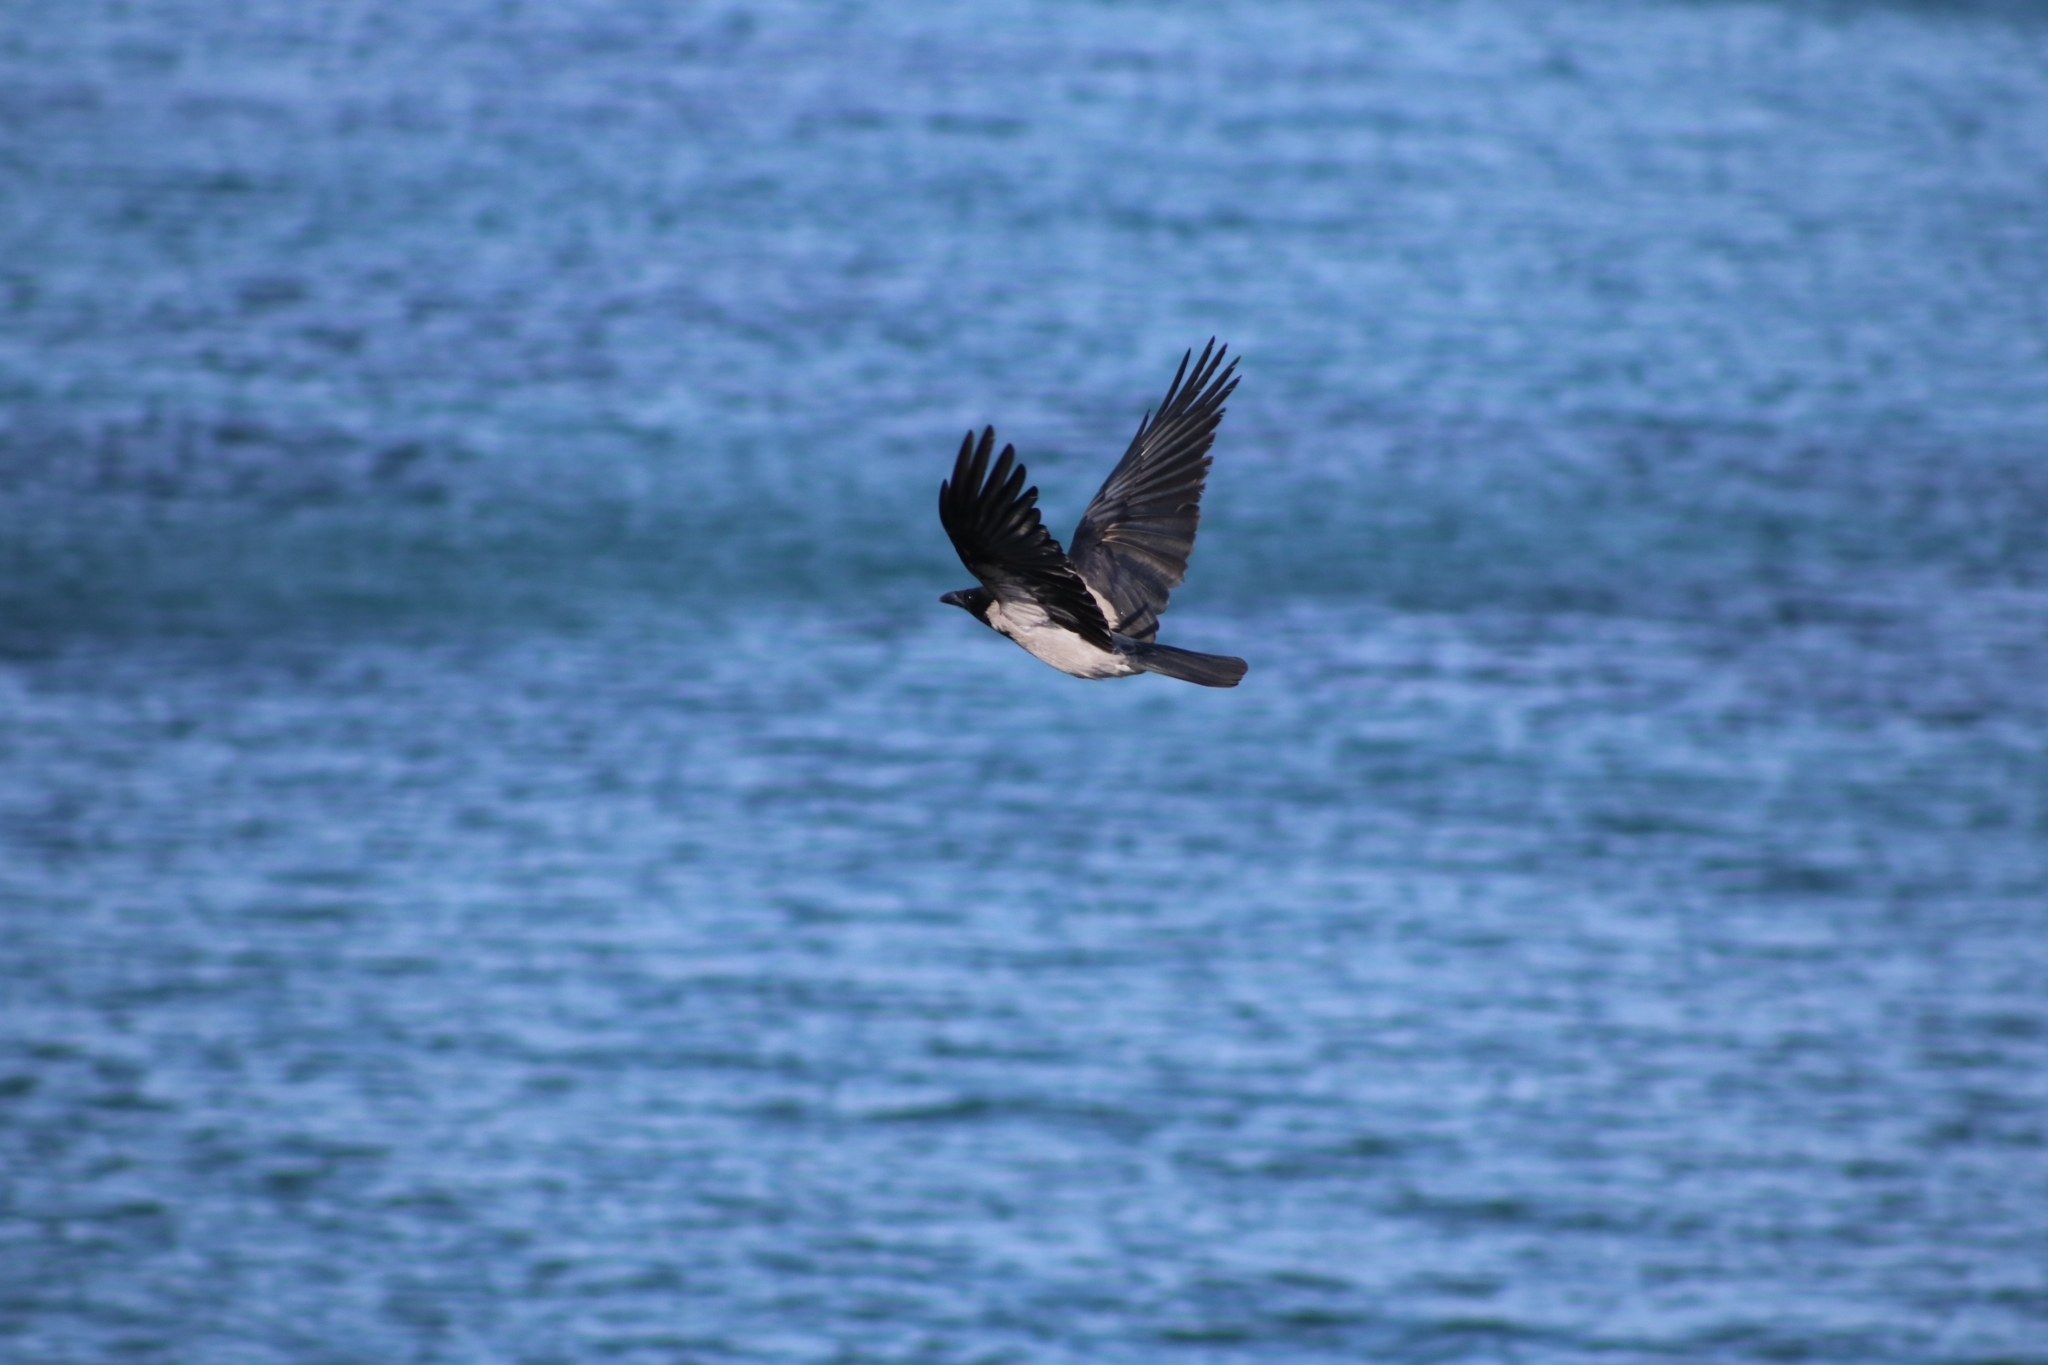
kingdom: Animalia
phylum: Chordata
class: Aves
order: Passeriformes
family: Corvidae
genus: Corvus
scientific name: Corvus cornix
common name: Hooded crow
